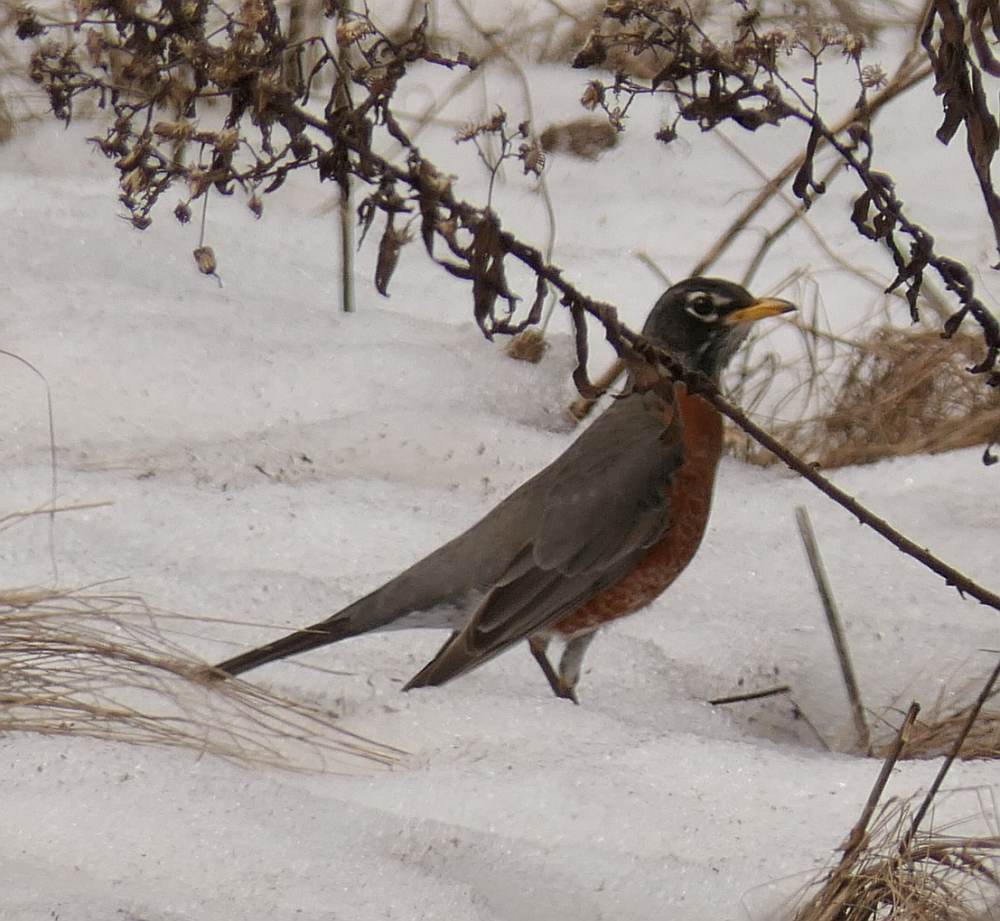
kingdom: Animalia
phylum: Chordata
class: Aves
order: Passeriformes
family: Turdidae
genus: Turdus
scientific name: Turdus migratorius
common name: American robin
